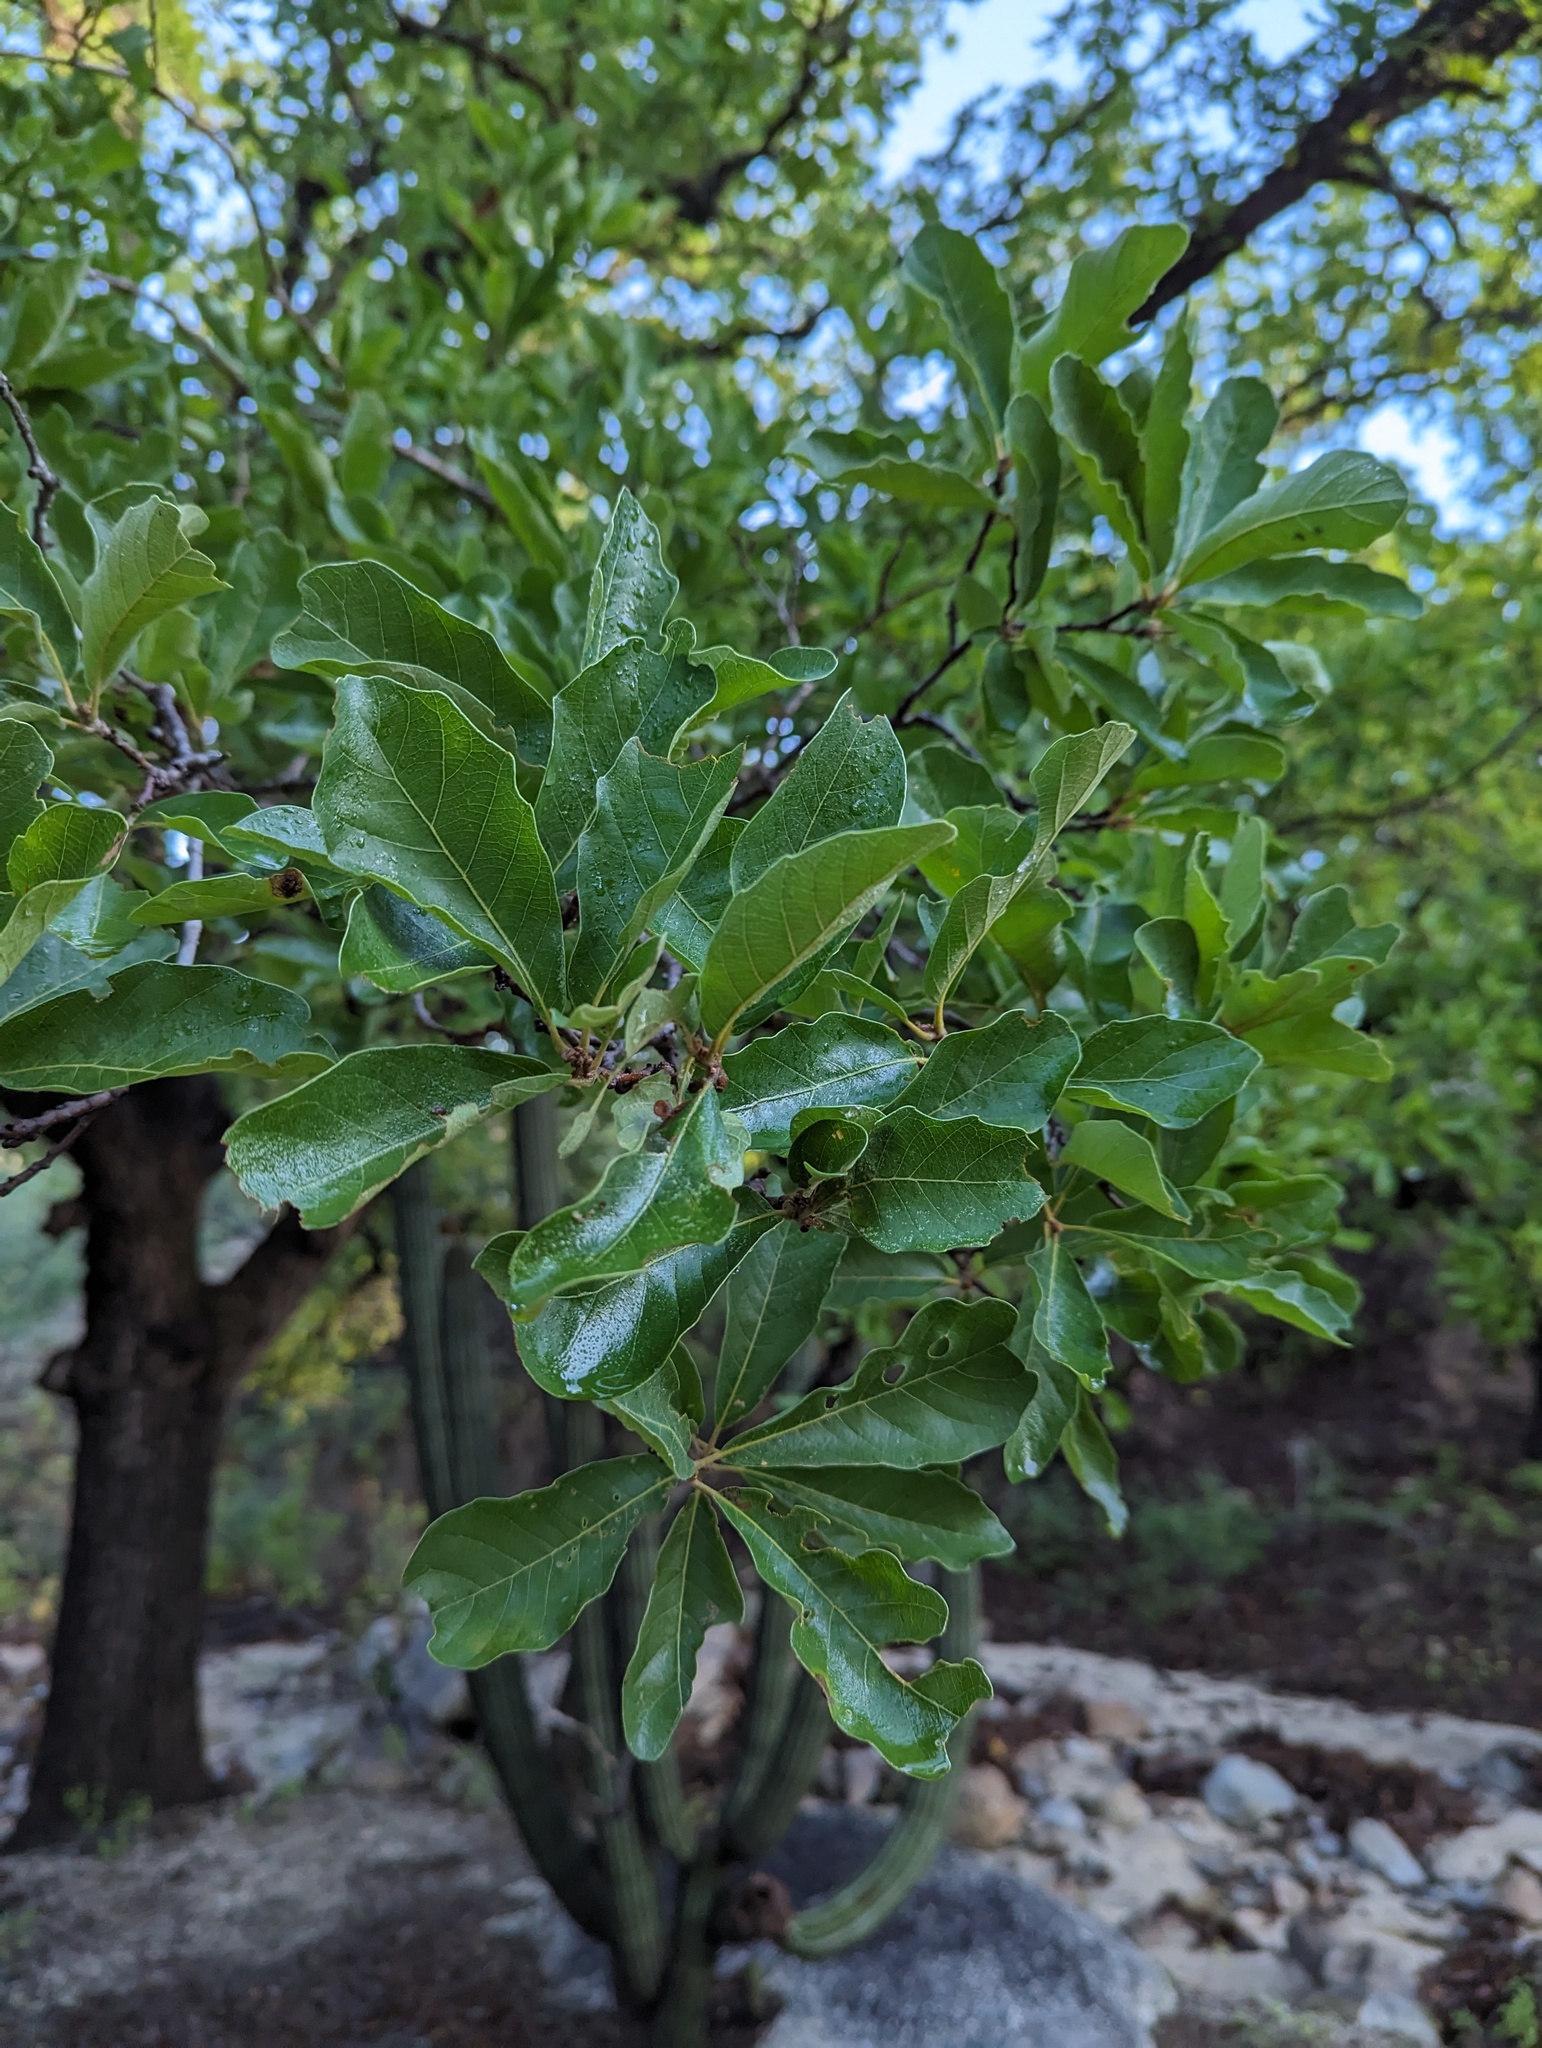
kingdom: Plantae
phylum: Tracheophyta
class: Magnoliopsida
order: Fagales
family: Fagaceae
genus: Quercus
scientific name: Quercus tuberculata
